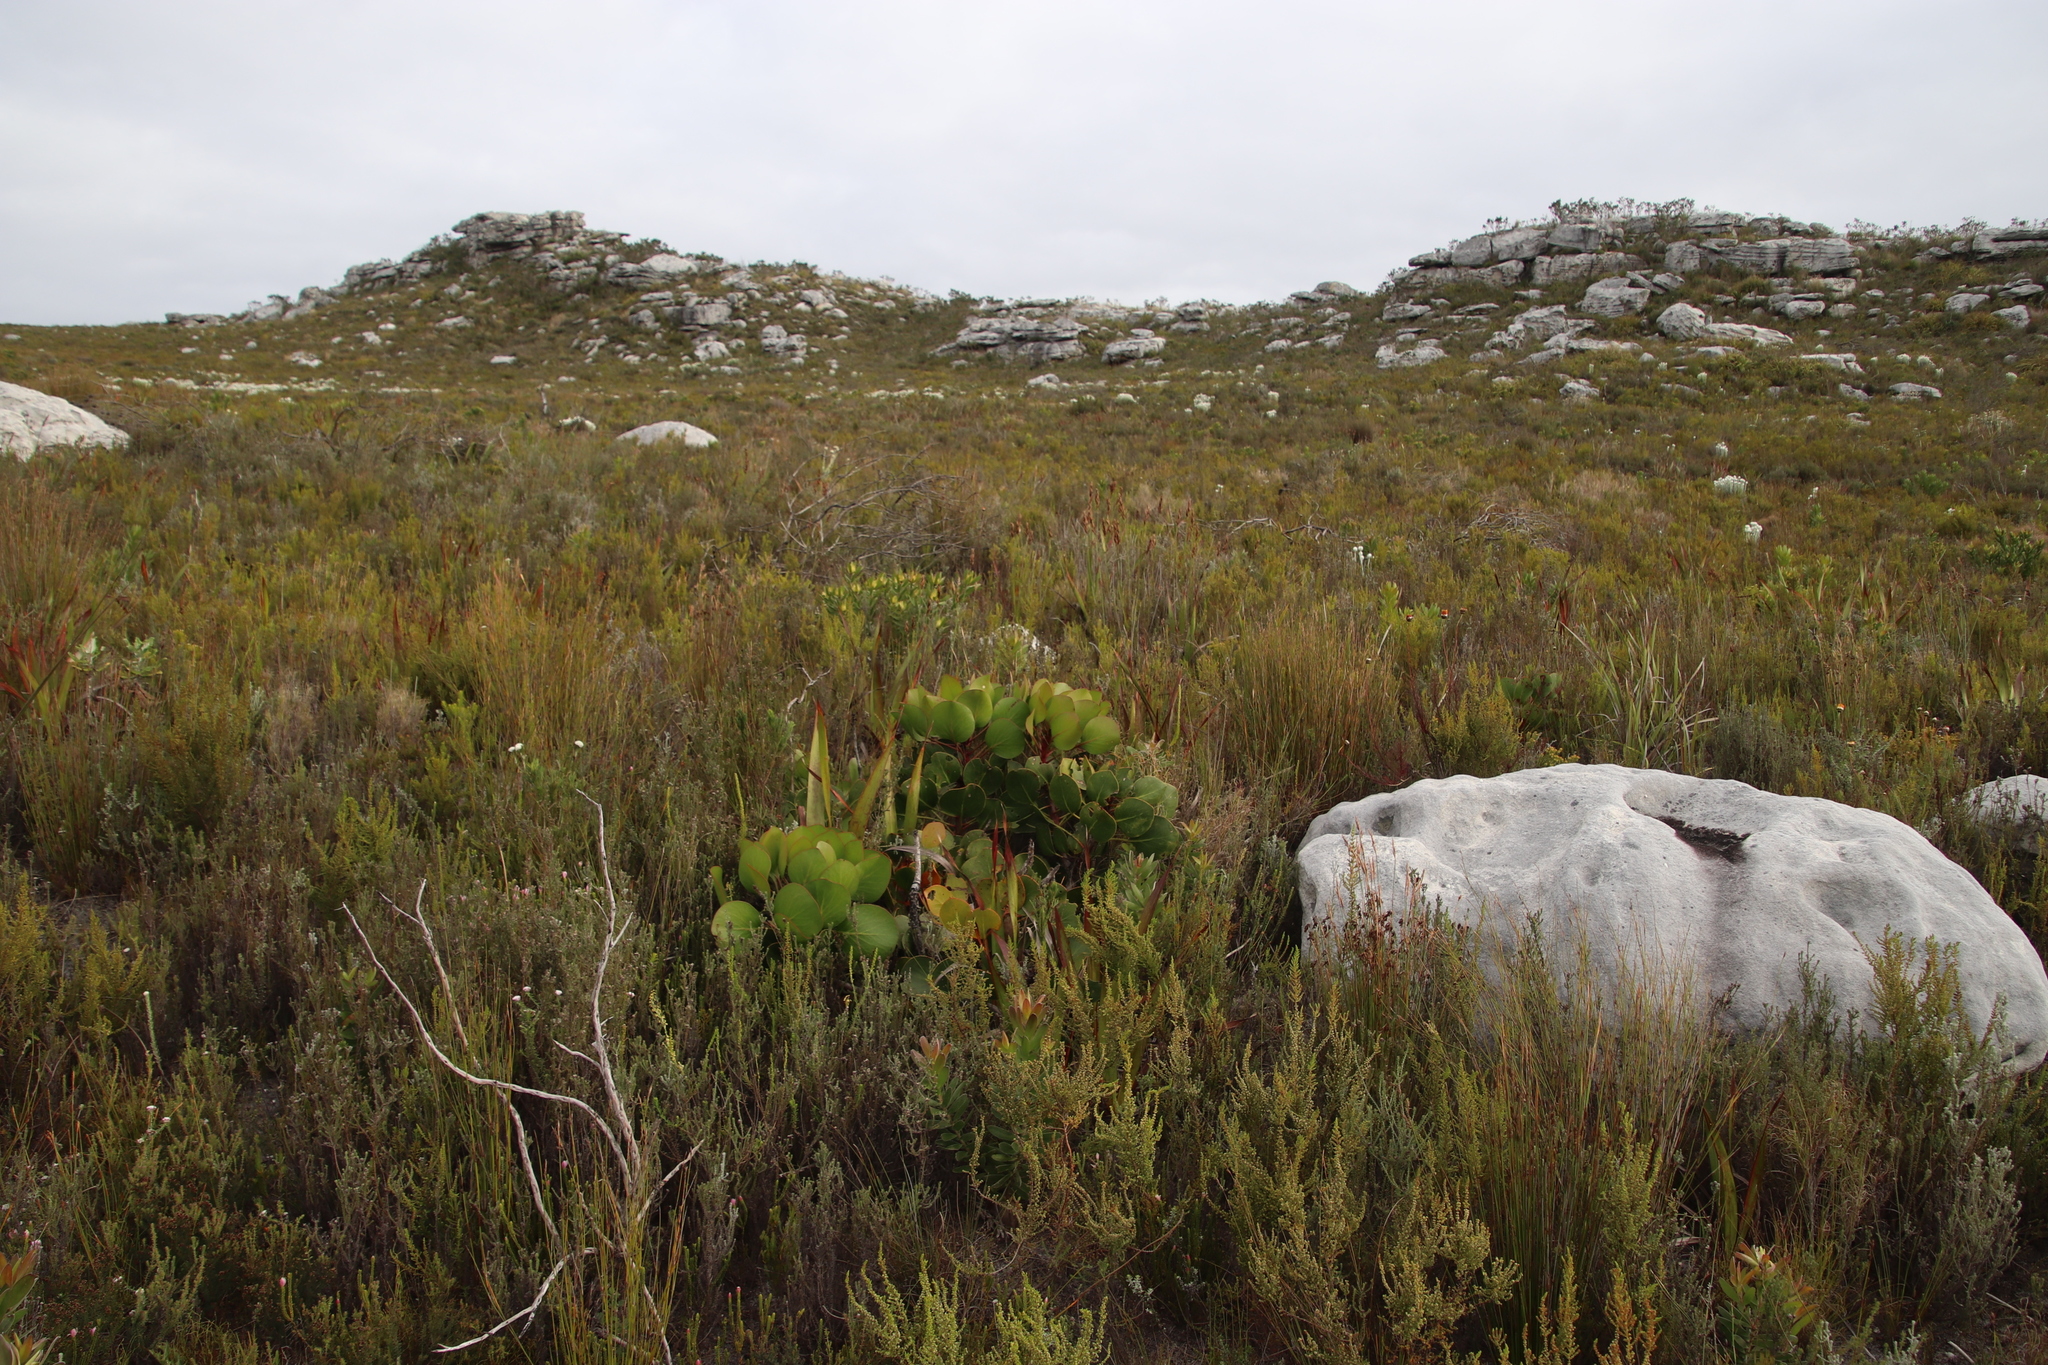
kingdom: Plantae
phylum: Tracheophyta
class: Magnoliopsida
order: Proteales
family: Proteaceae
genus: Protea
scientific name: Protea cynaroides
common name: King protea
